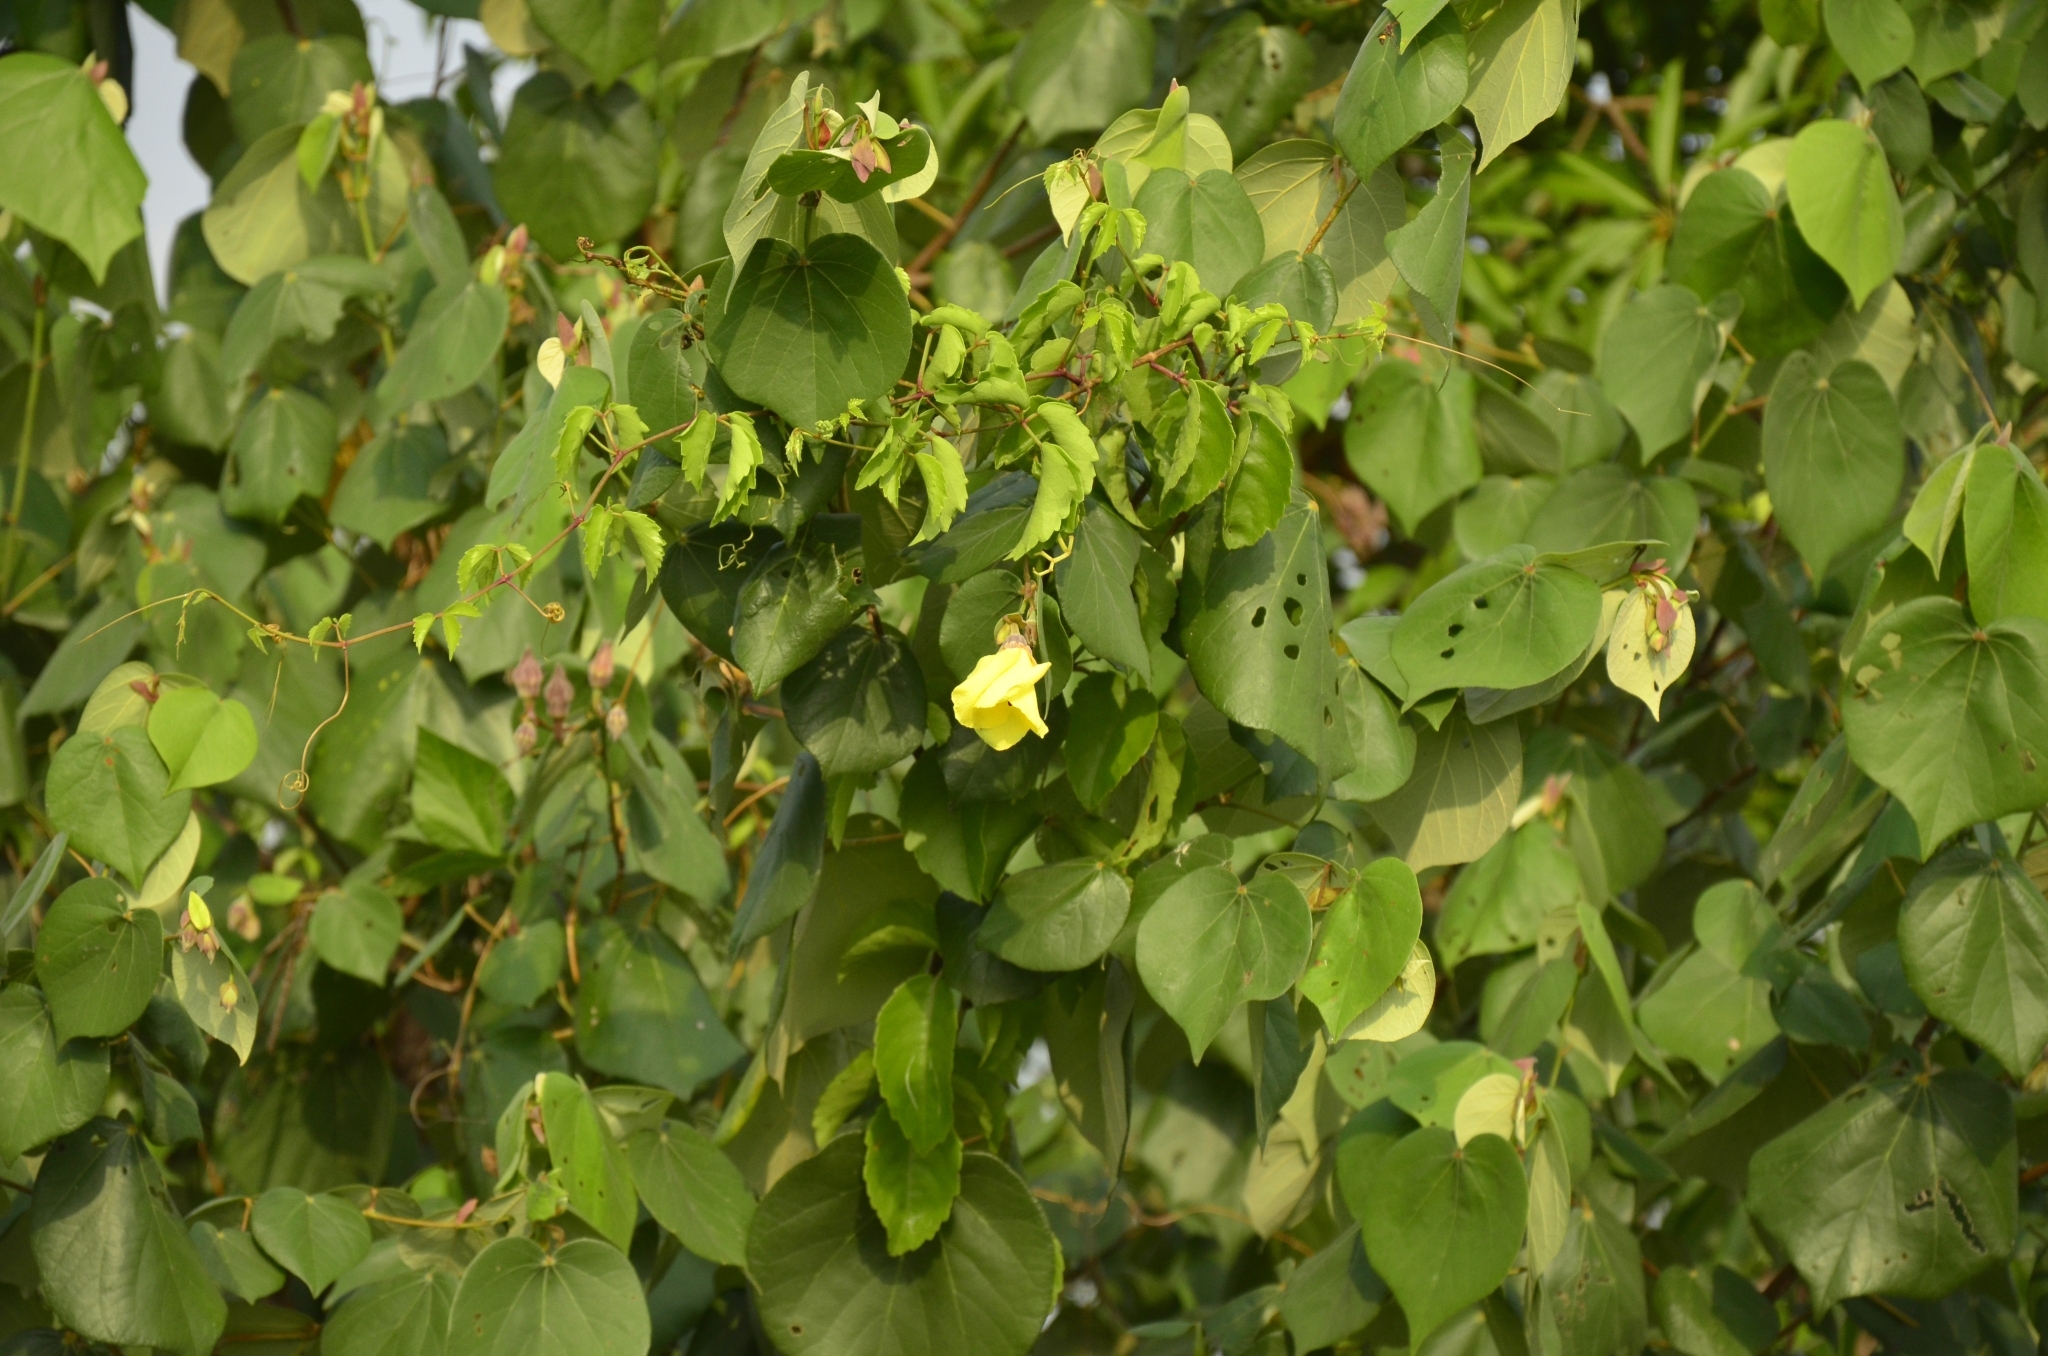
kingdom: Plantae
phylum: Tracheophyta
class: Magnoliopsida
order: Malvales
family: Malvaceae
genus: Talipariti
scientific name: Talipariti tiliaceum
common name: Sea hibiscus
